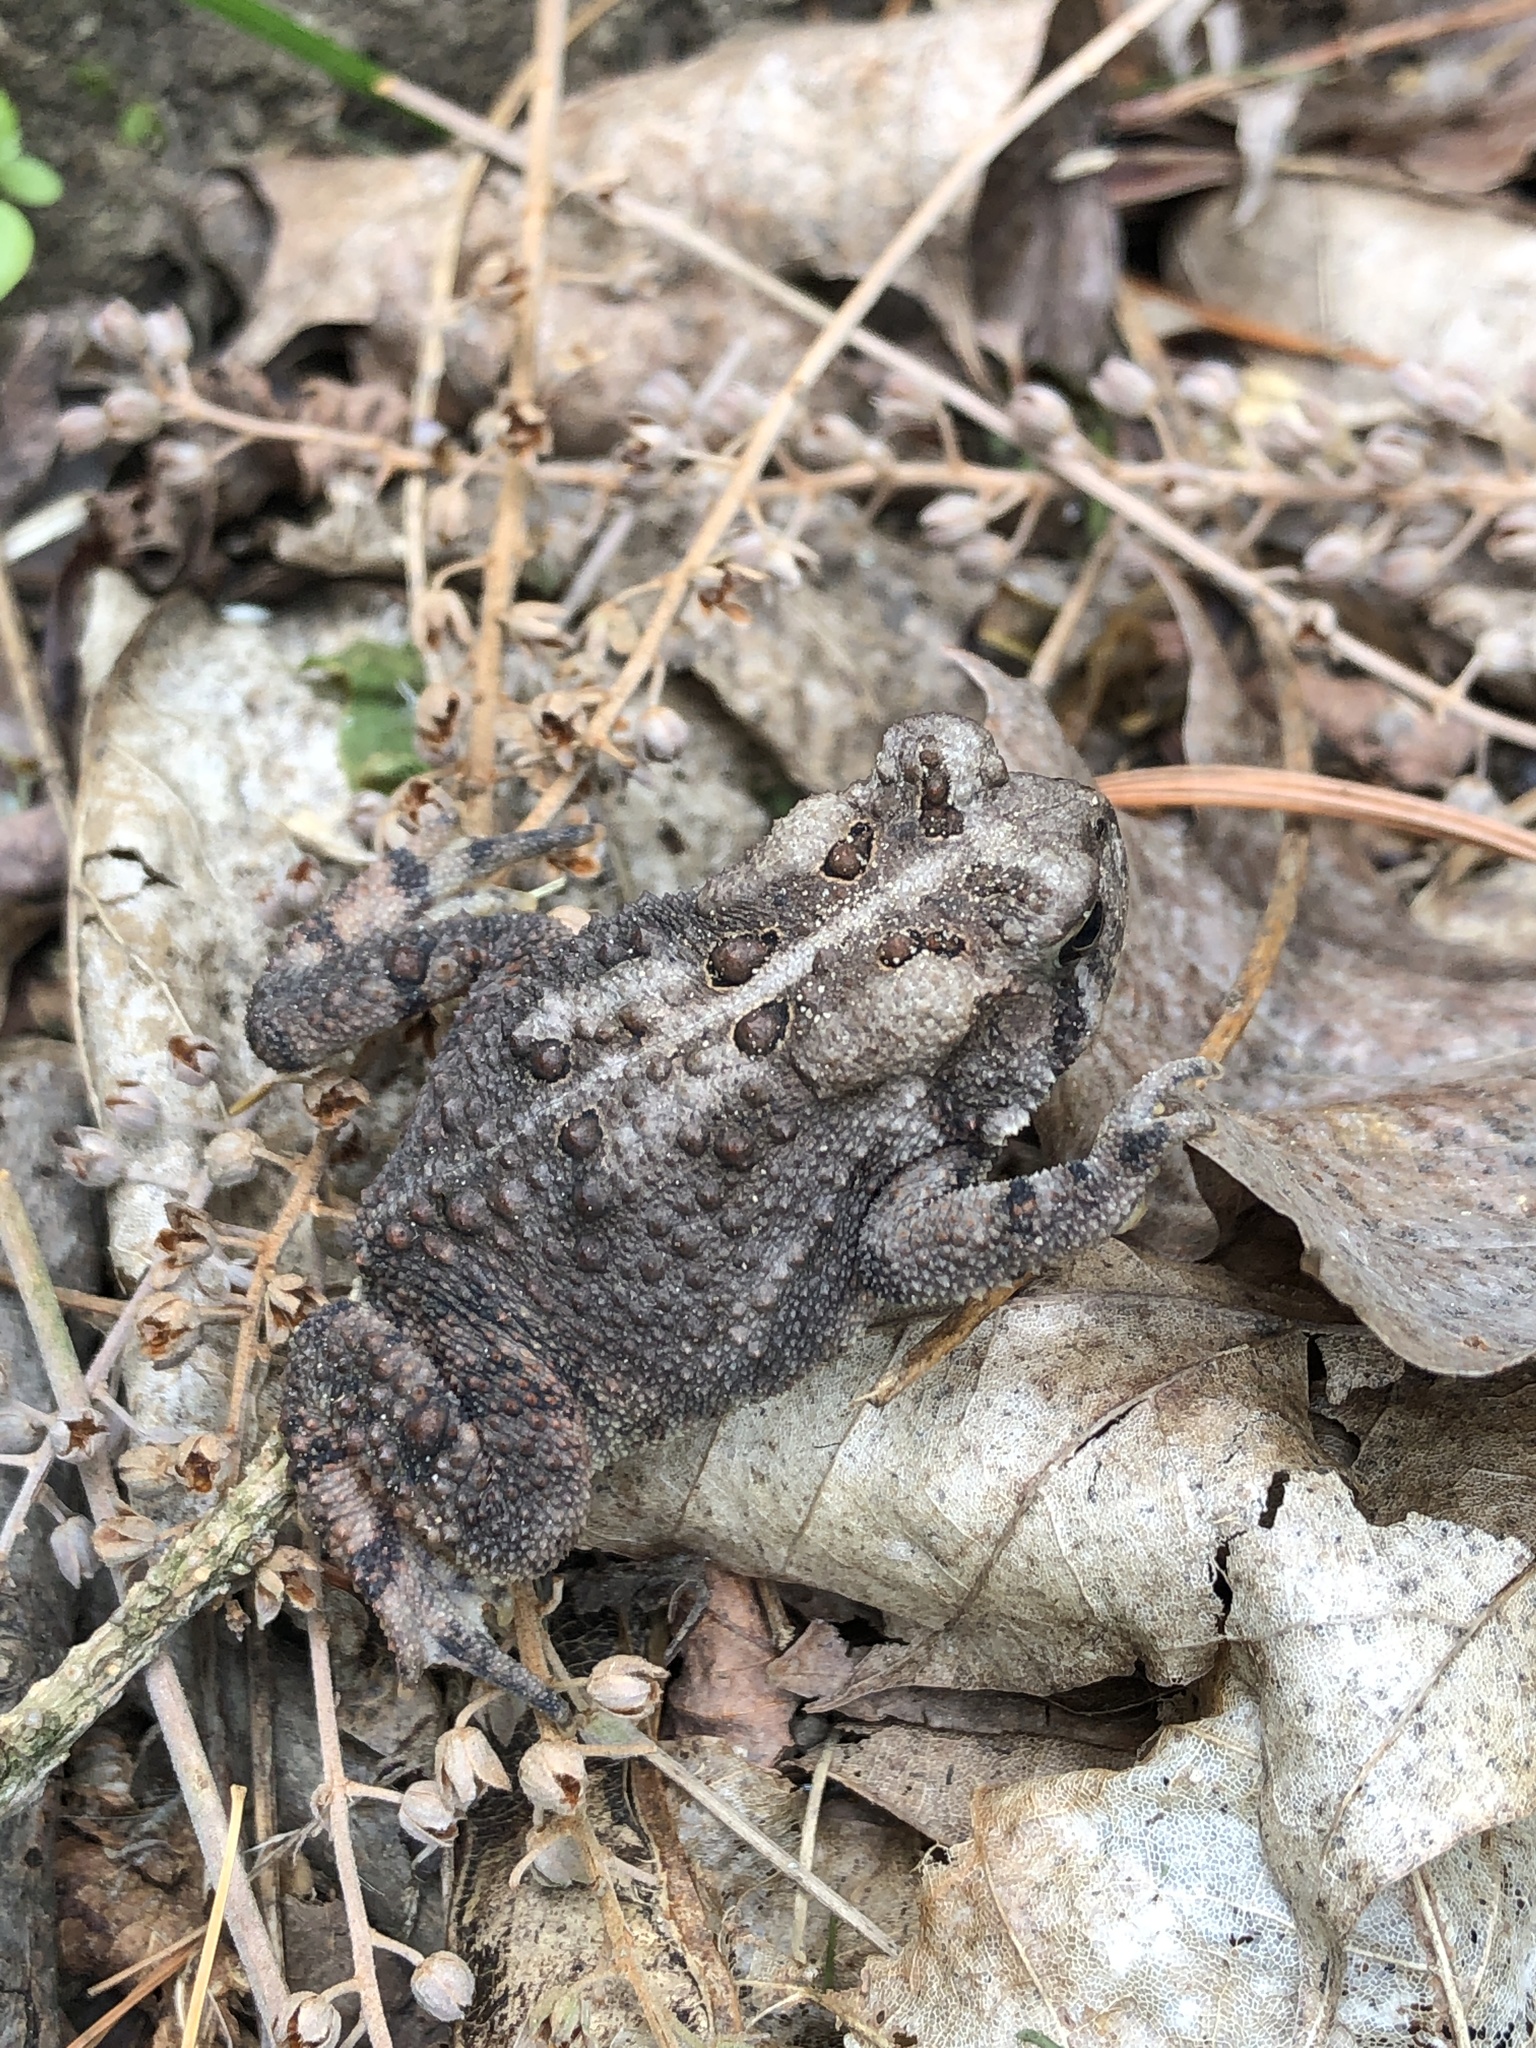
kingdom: Animalia
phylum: Chordata
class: Amphibia
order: Anura
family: Bufonidae
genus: Anaxyrus
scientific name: Anaxyrus americanus
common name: American toad
